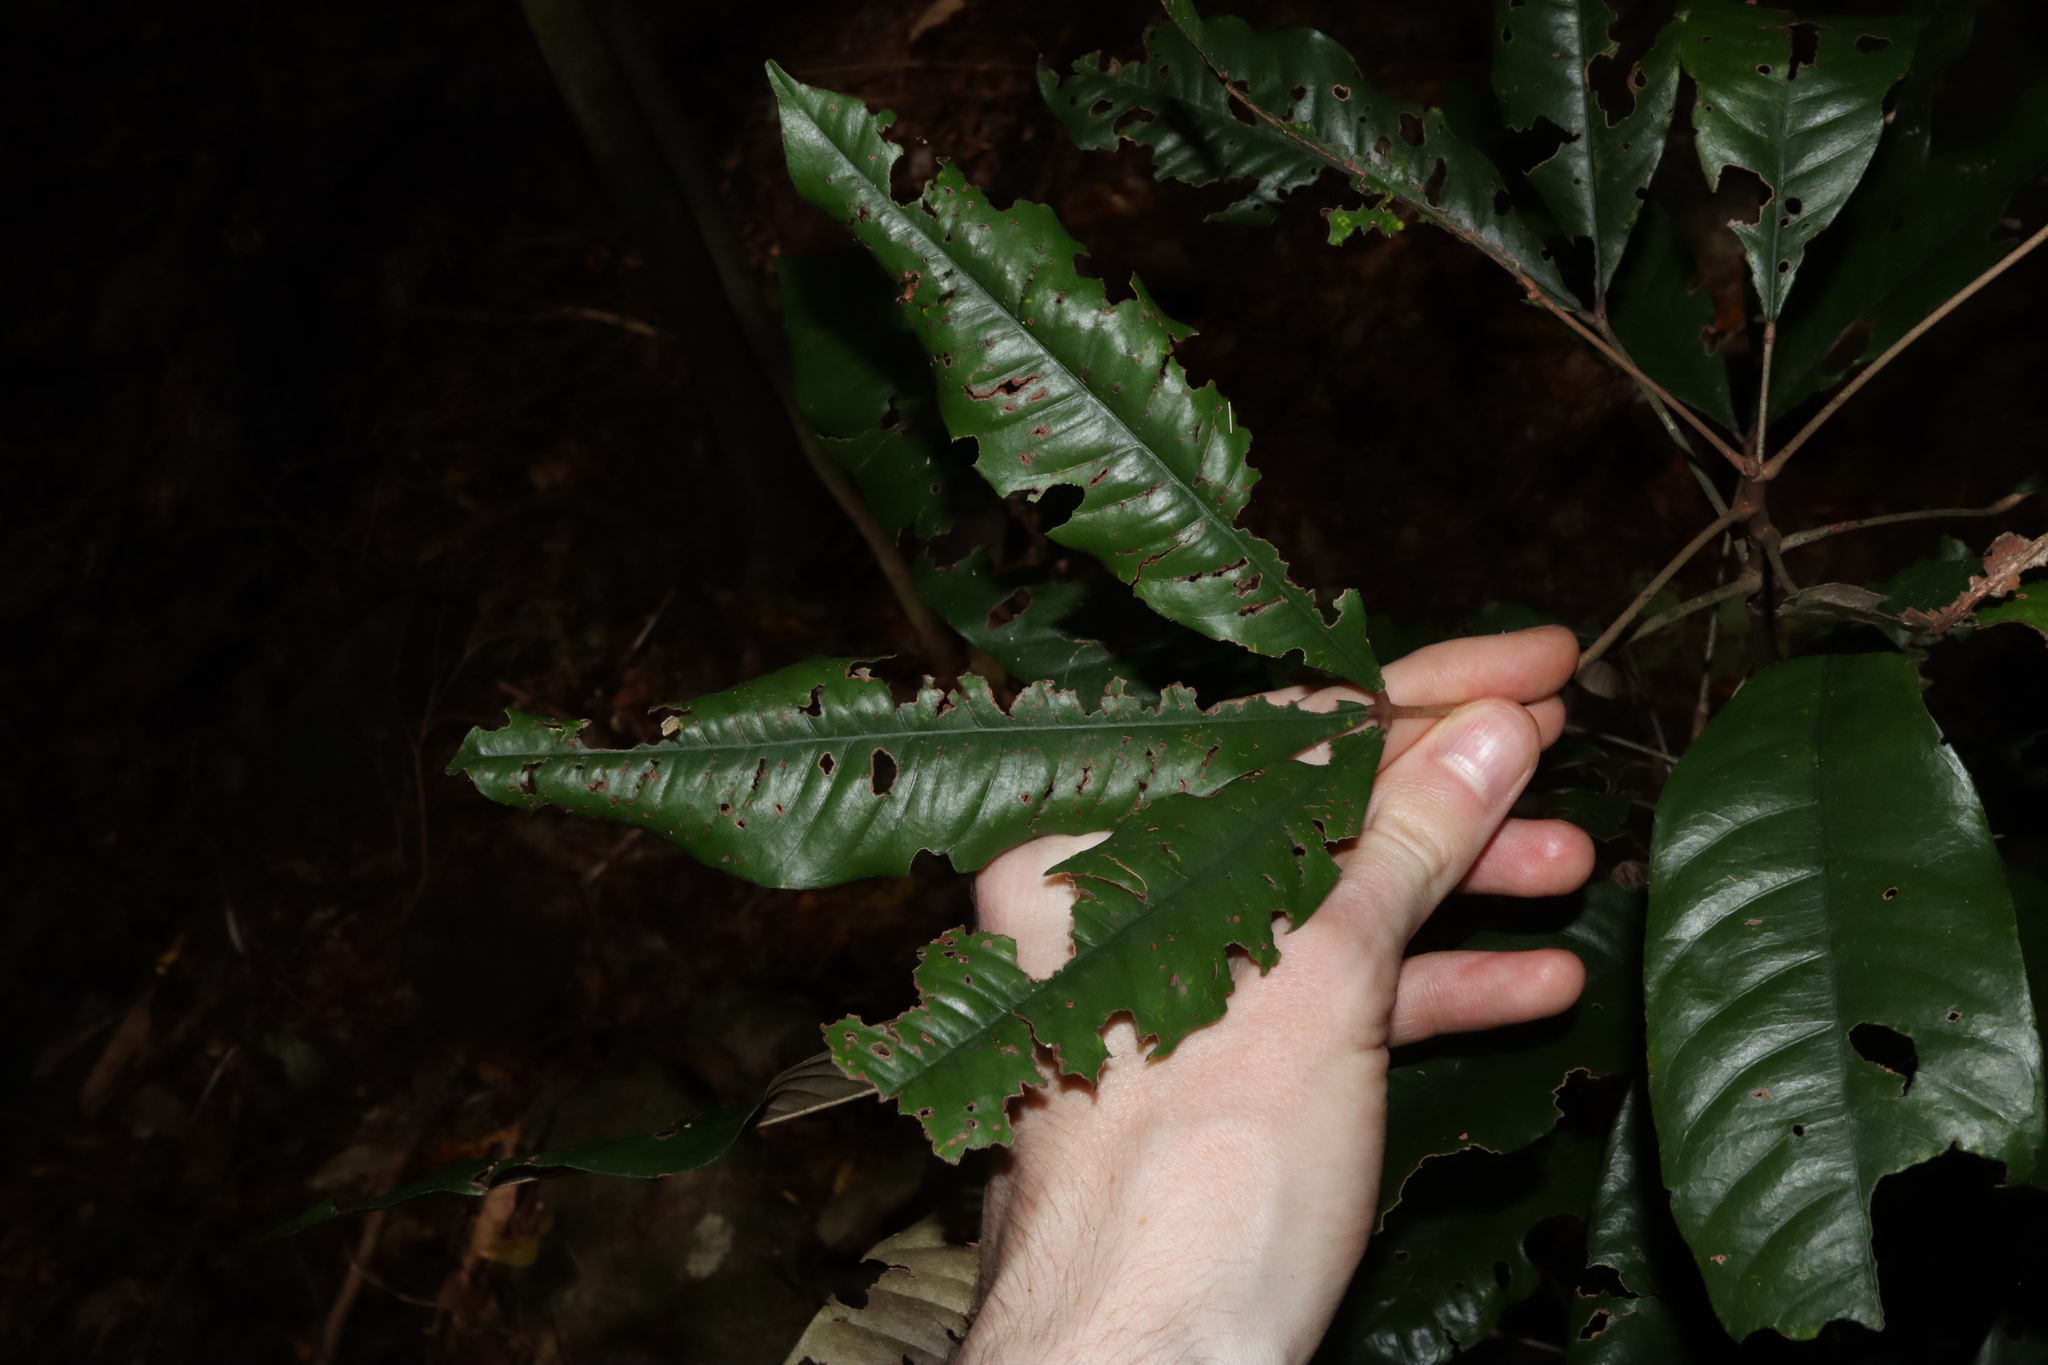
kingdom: Plantae
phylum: Tracheophyta
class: Magnoliopsida
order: Malvales
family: Malvaceae
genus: Argyrodendron
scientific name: Argyrodendron peralatum
